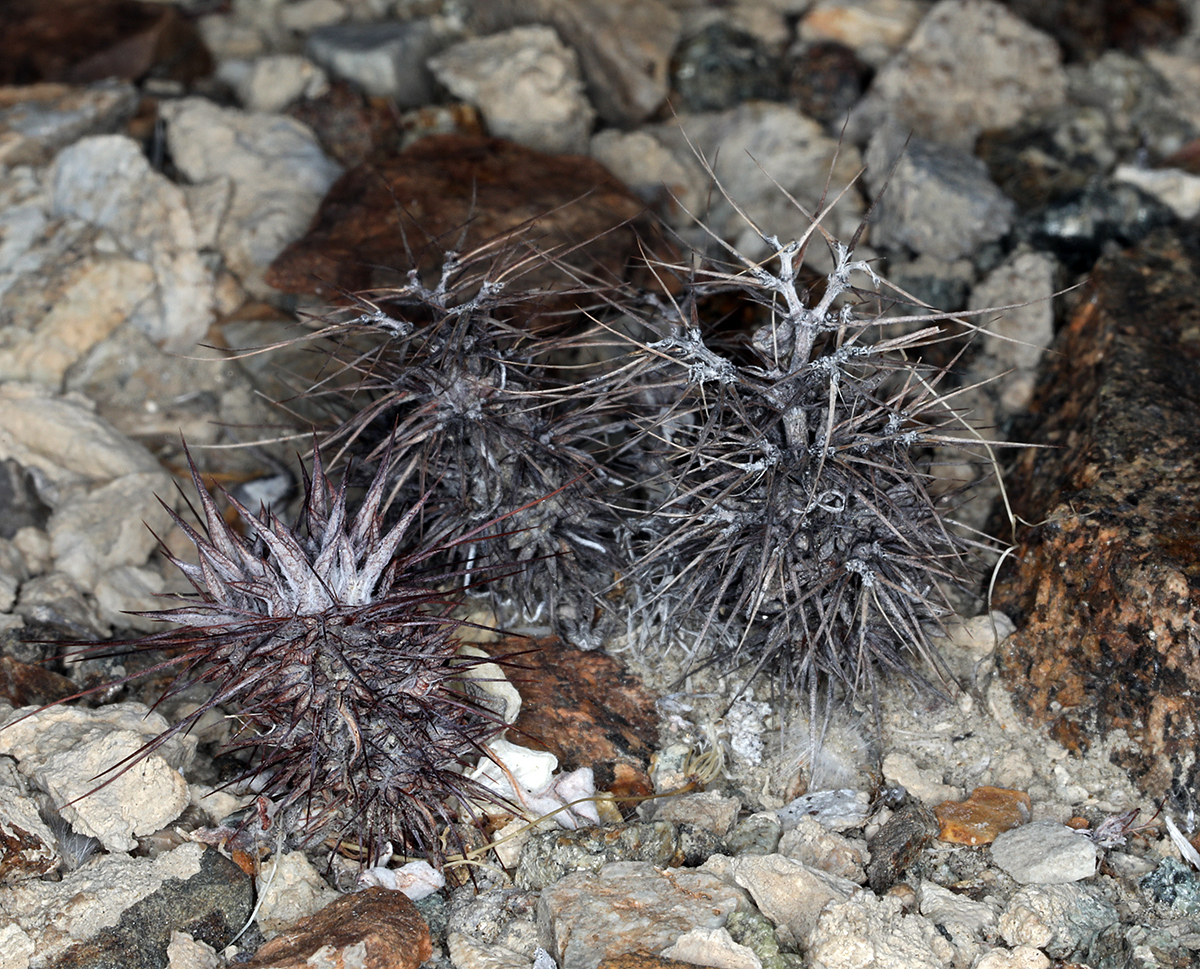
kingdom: Plantae
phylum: Tracheophyta
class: Magnoliopsida
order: Caryophyllales
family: Polygonaceae
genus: Chorizanthe
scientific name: Chorizanthe rigida
